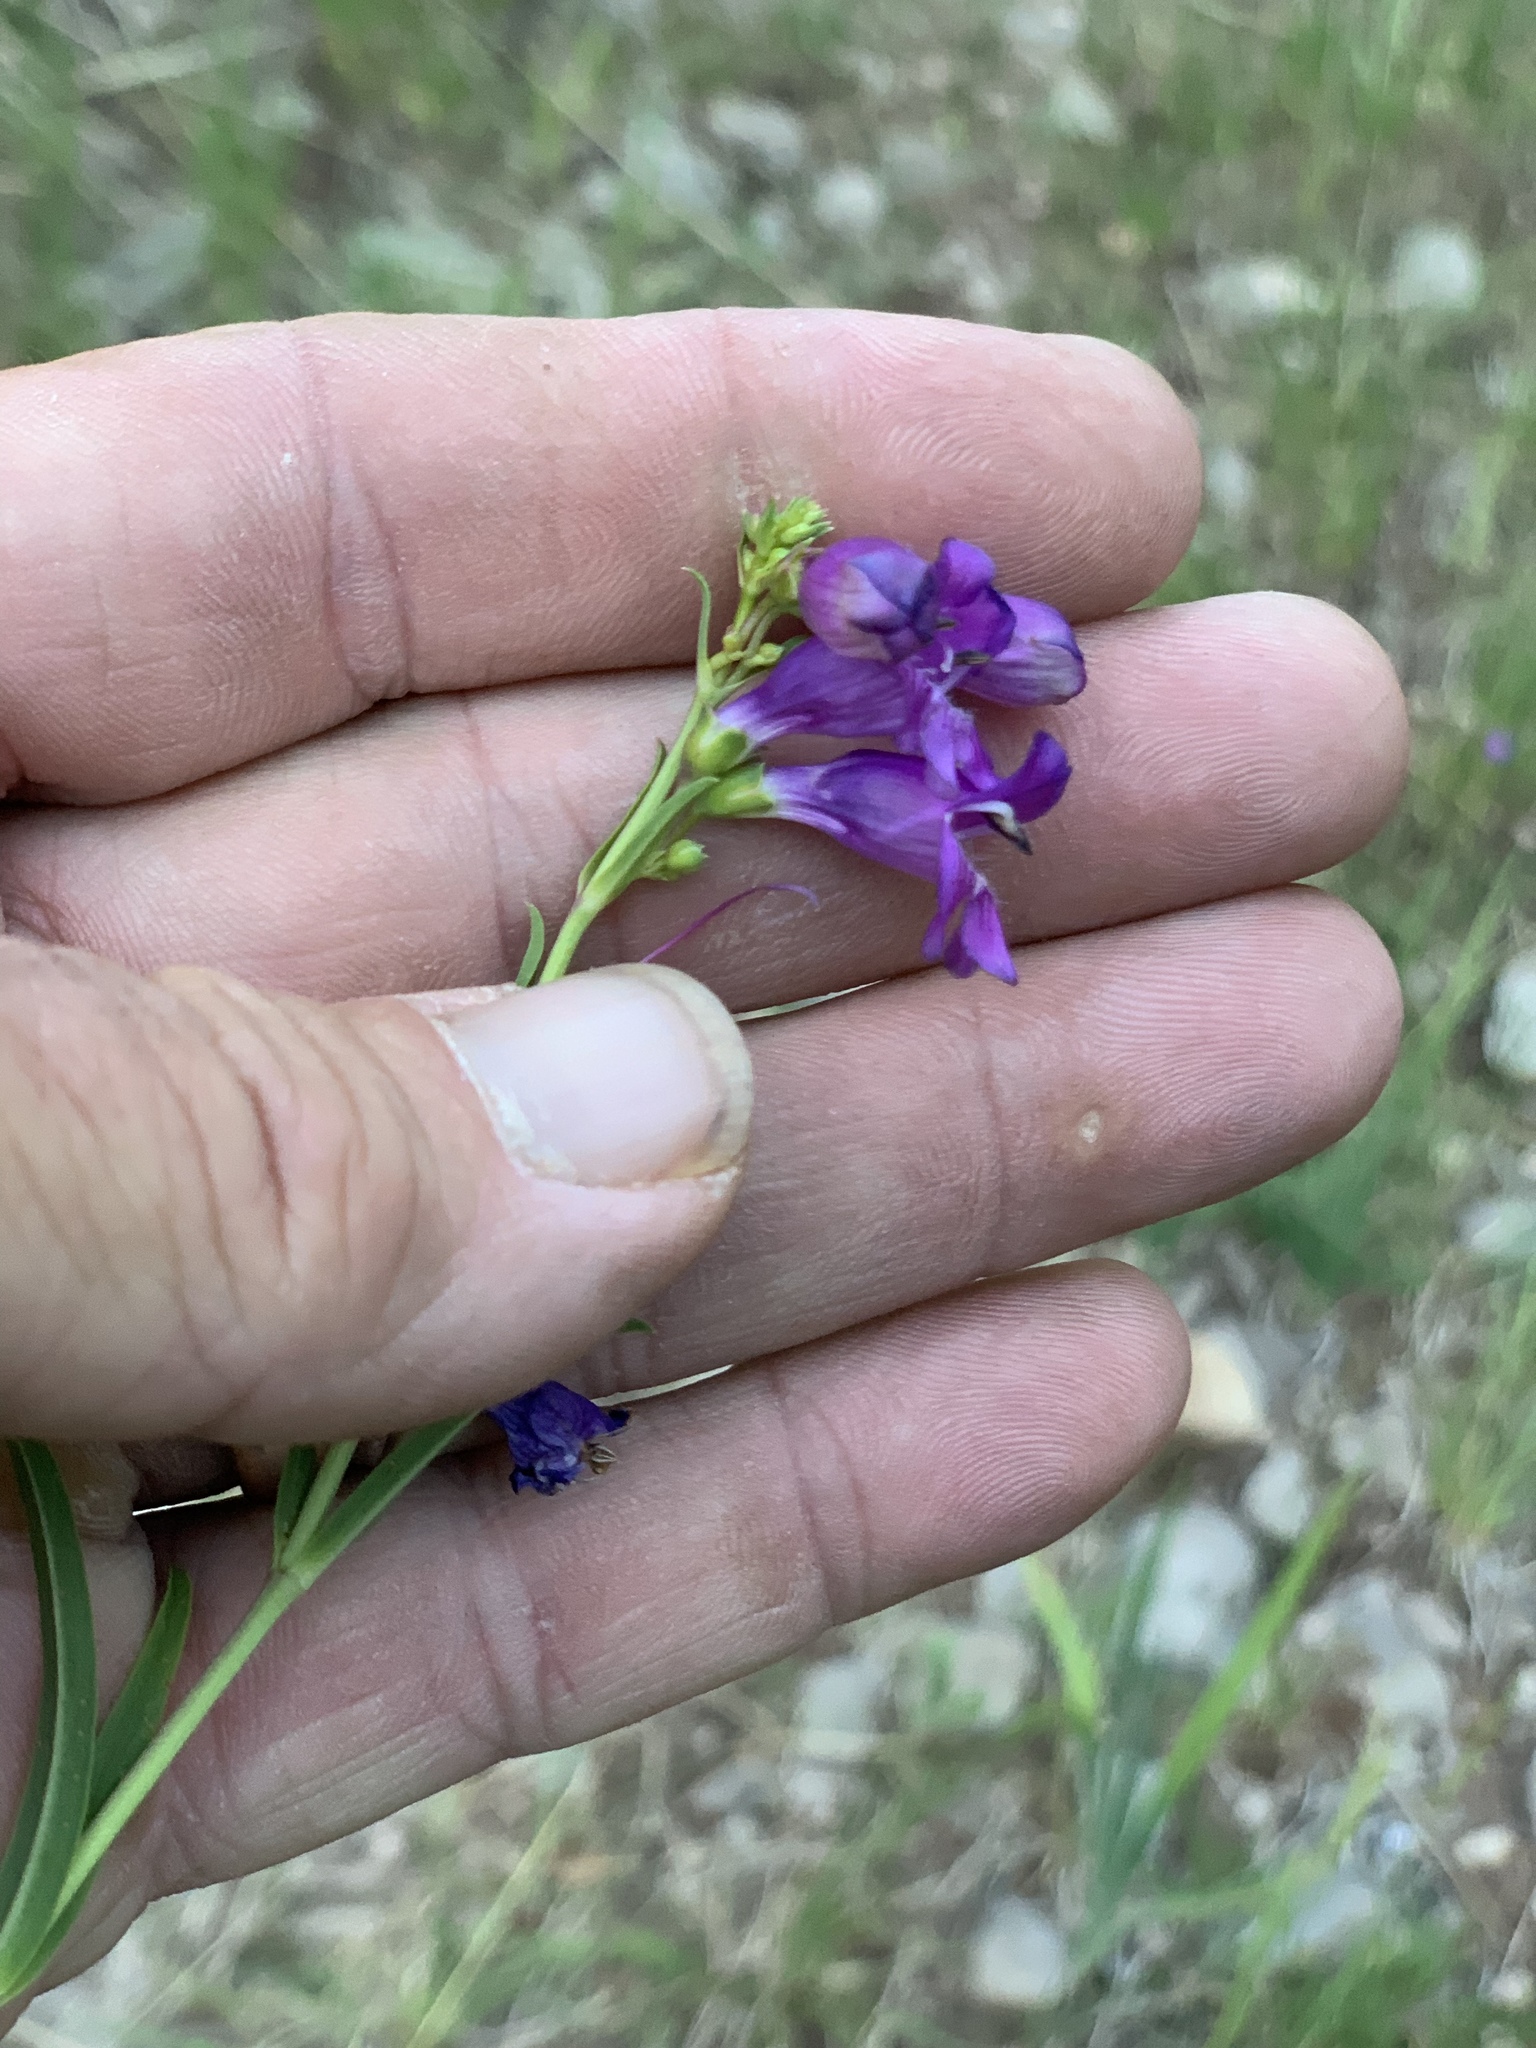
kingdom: Plantae
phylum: Tracheophyta
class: Magnoliopsida
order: Lamiales
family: Plantaginaceae
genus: Penstemon
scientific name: Penstemon neomexicanus
